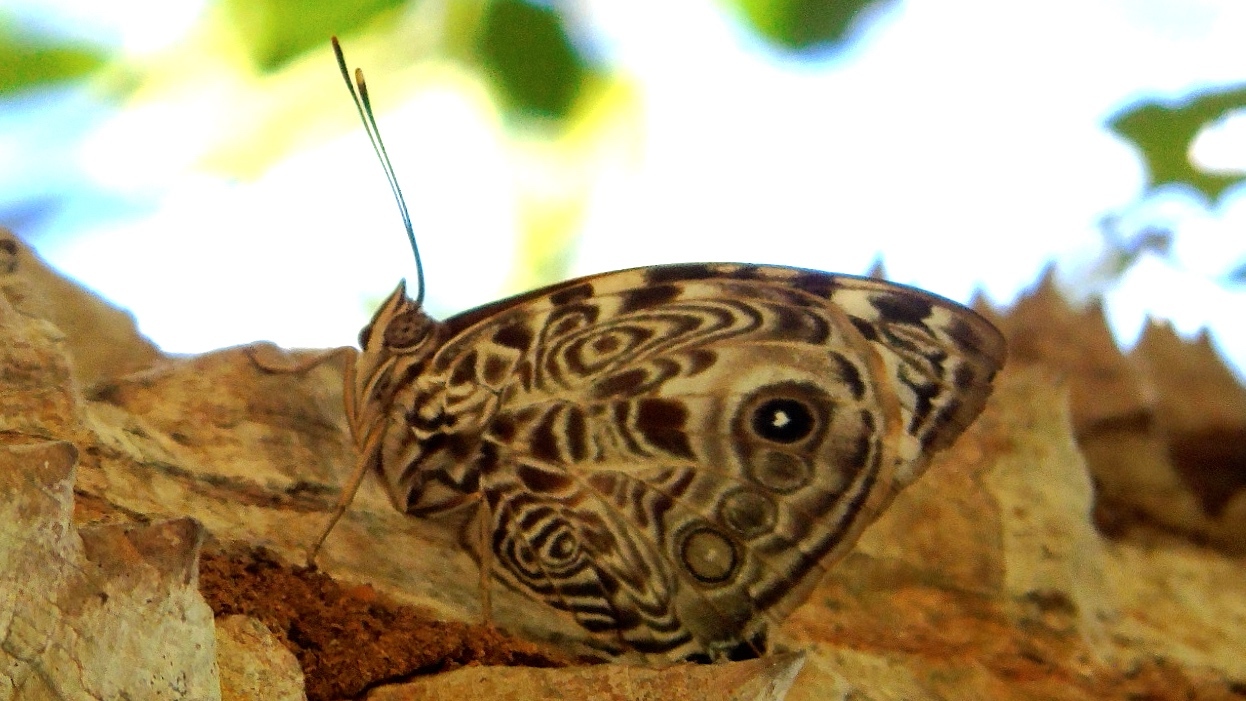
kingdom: Animalia
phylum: Arthropoda
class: Insecta
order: Lepidoptera
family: Nymphalidae
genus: Smyrna
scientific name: Smyrna blomfildia
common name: Blomfild's beauty
